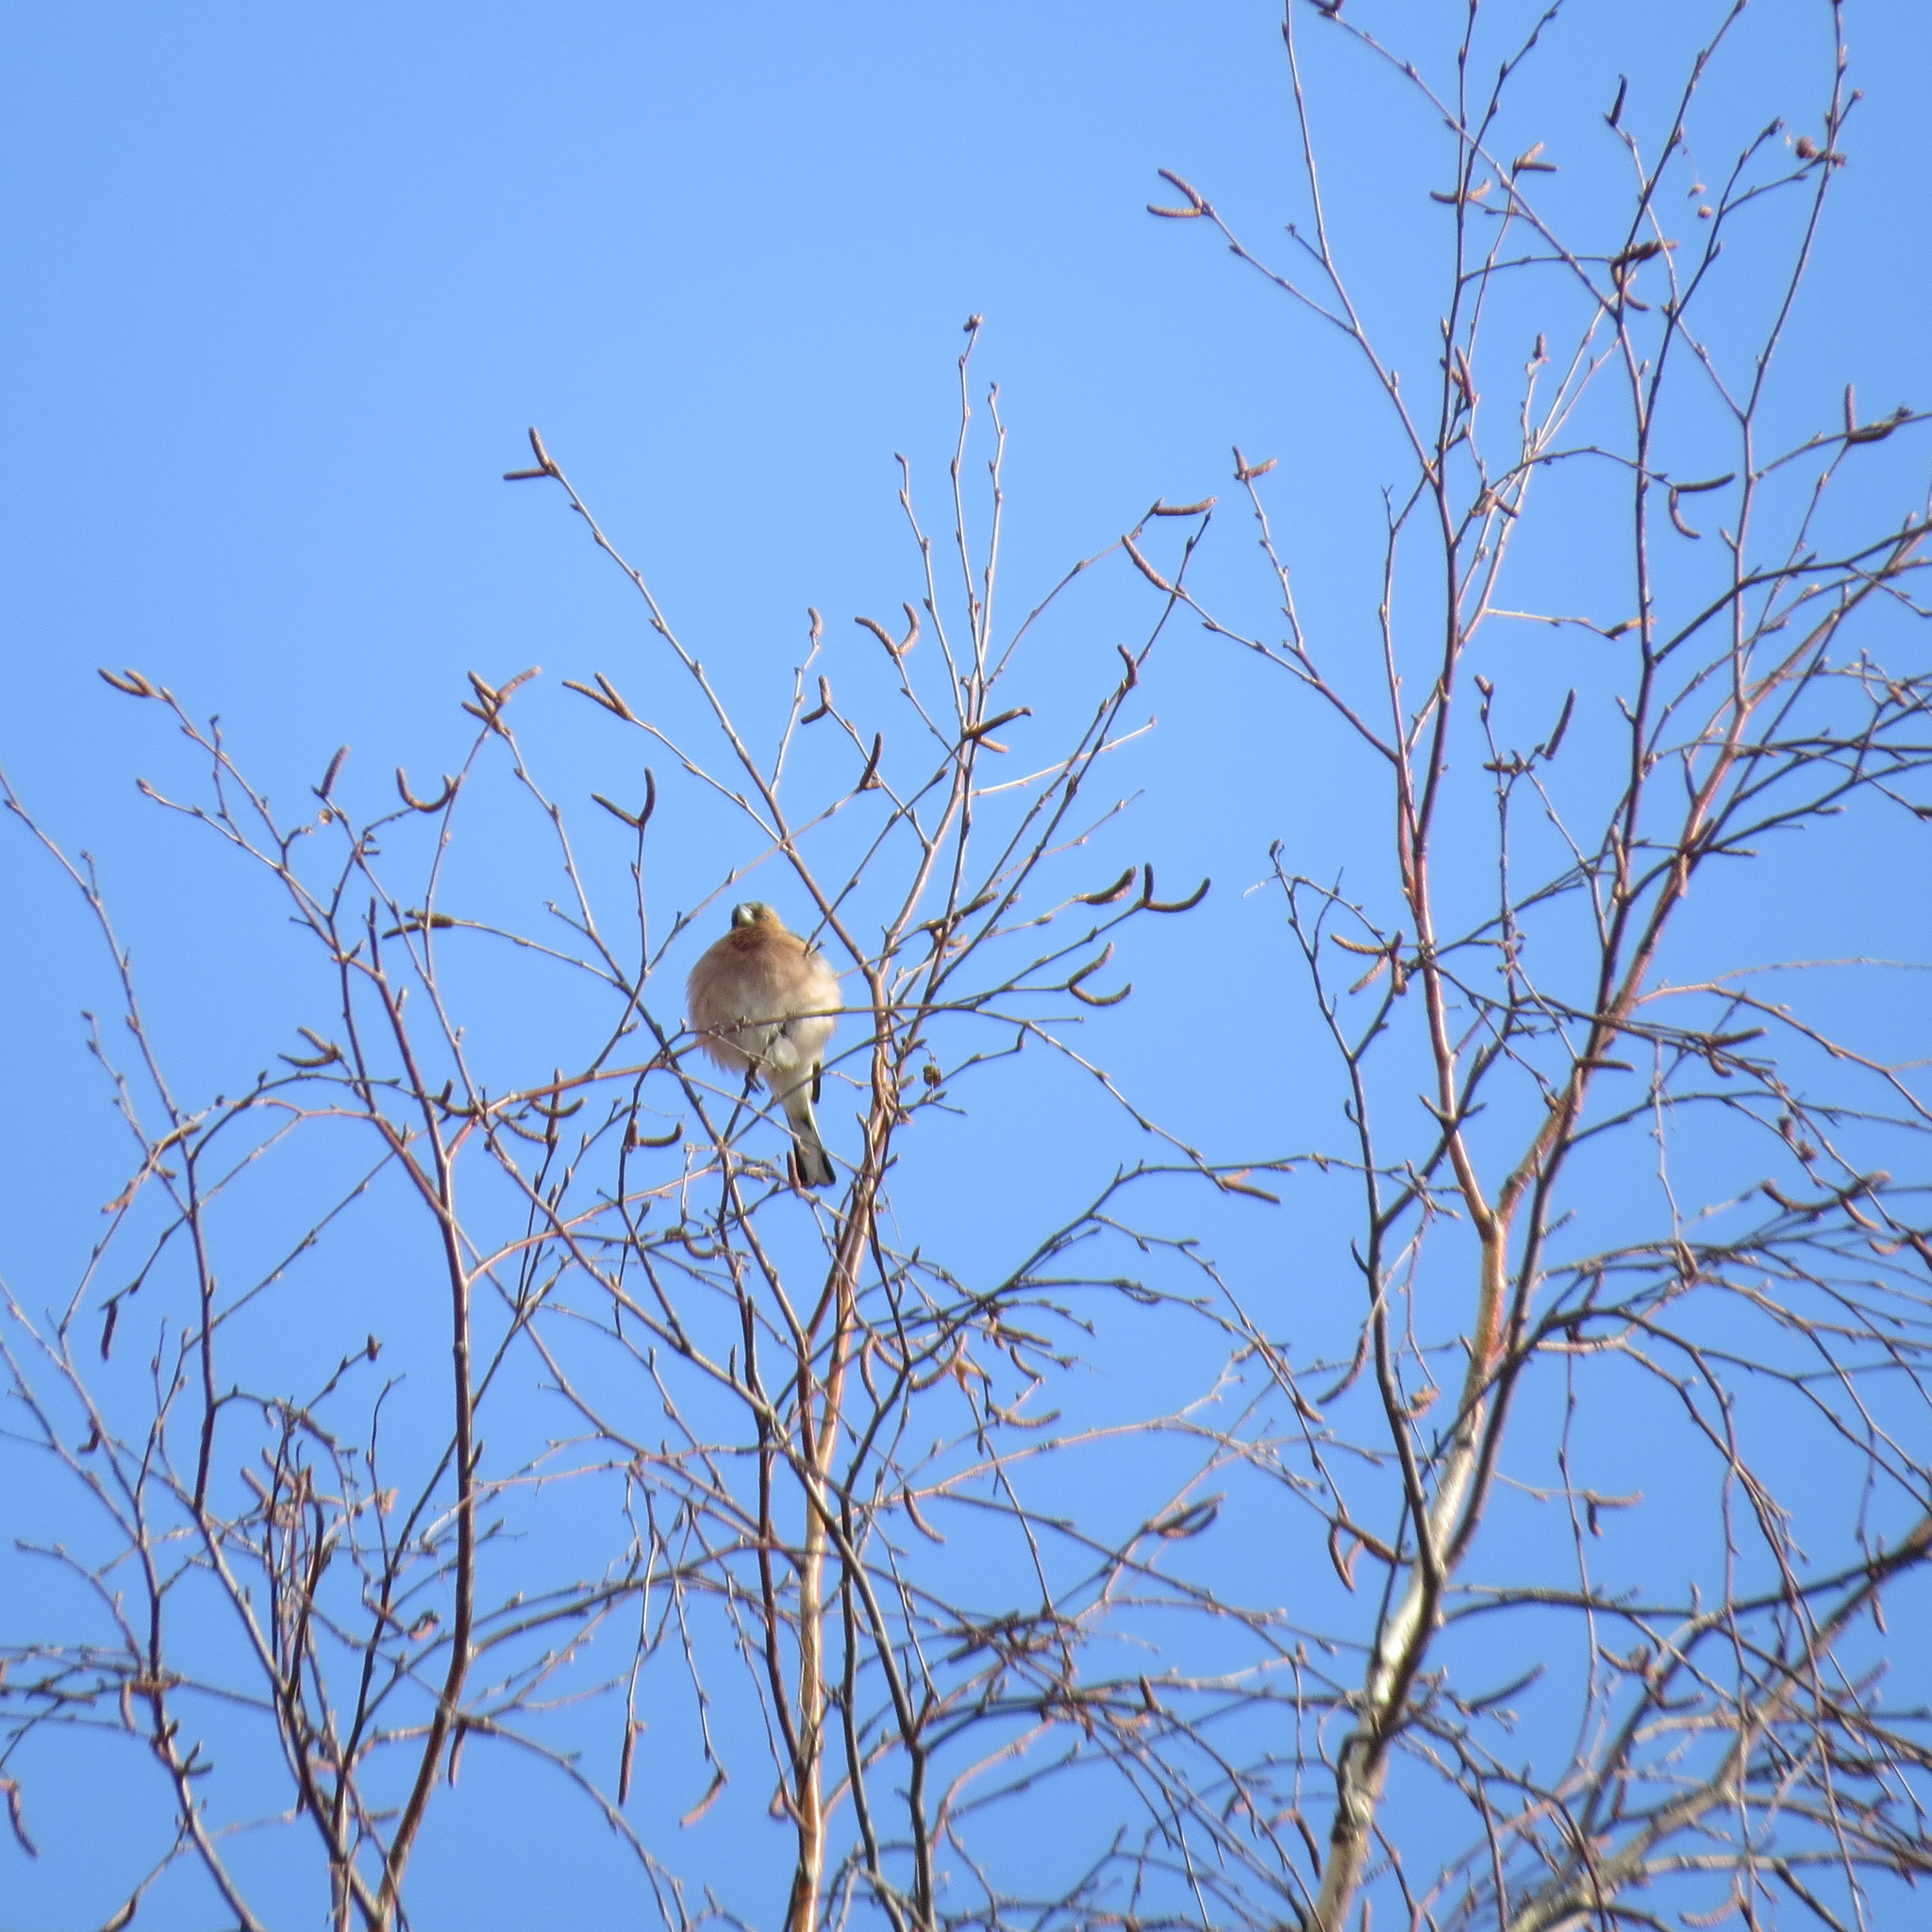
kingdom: Animalia
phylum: Chordata
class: Aves
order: Passeriformes
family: Fringillidae
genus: Fringilla
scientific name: Fringilla coelebs
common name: Common chaffinch
